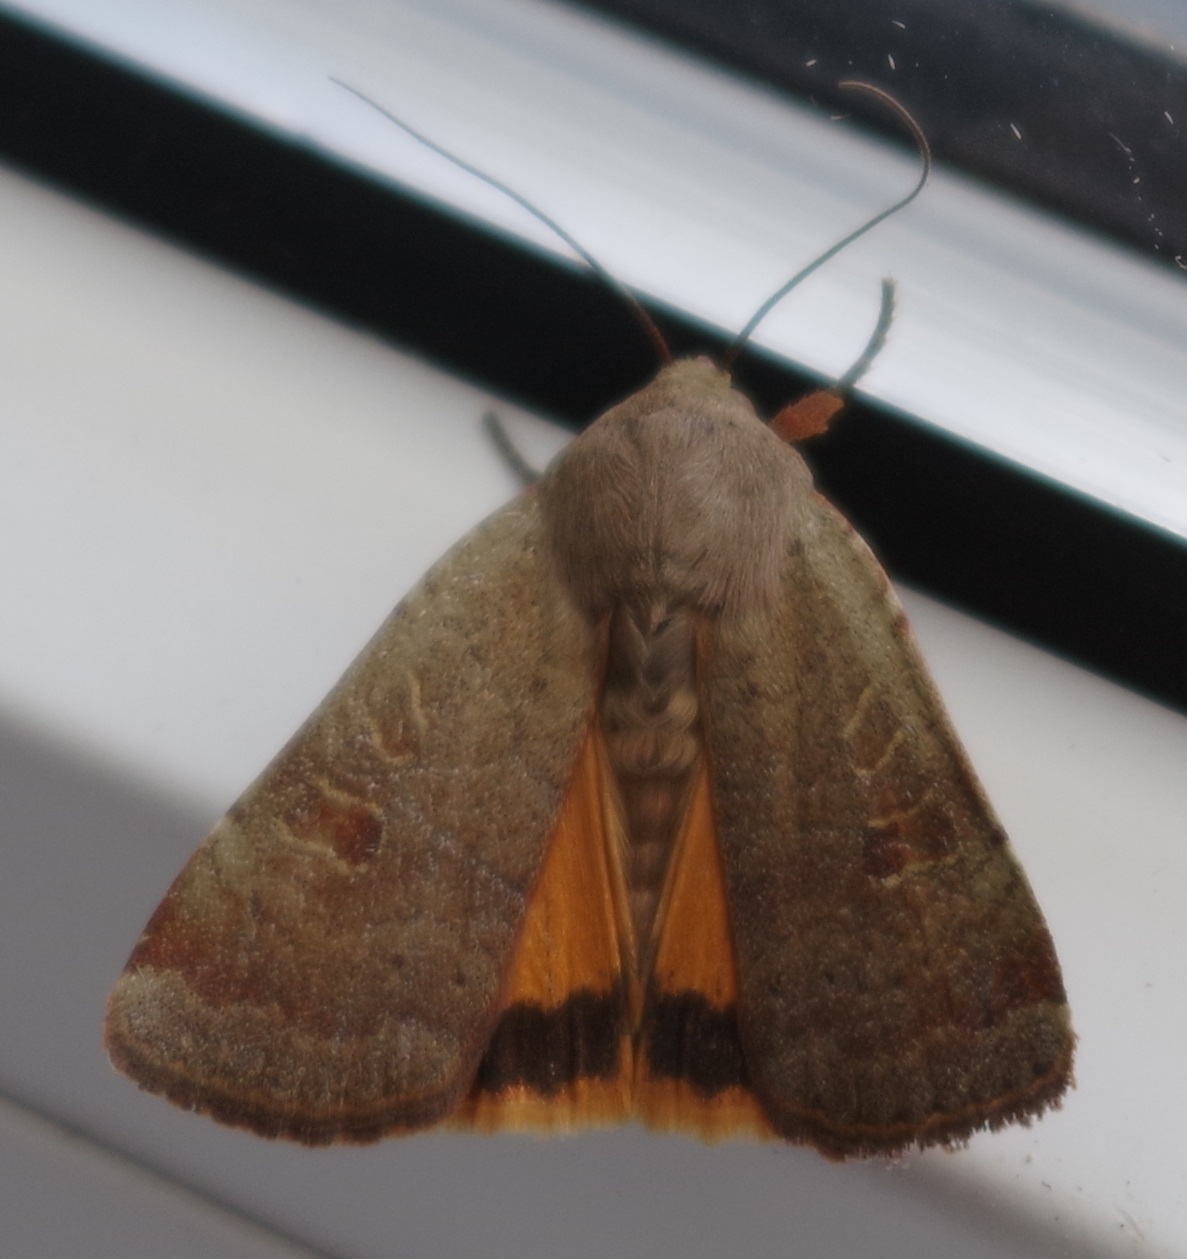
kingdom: Animalia
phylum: Arthropoda
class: Insecta
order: Lepidoptera
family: Noctuidae
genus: Noctua
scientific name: Noctua comes
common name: Lesser yellow underwing
